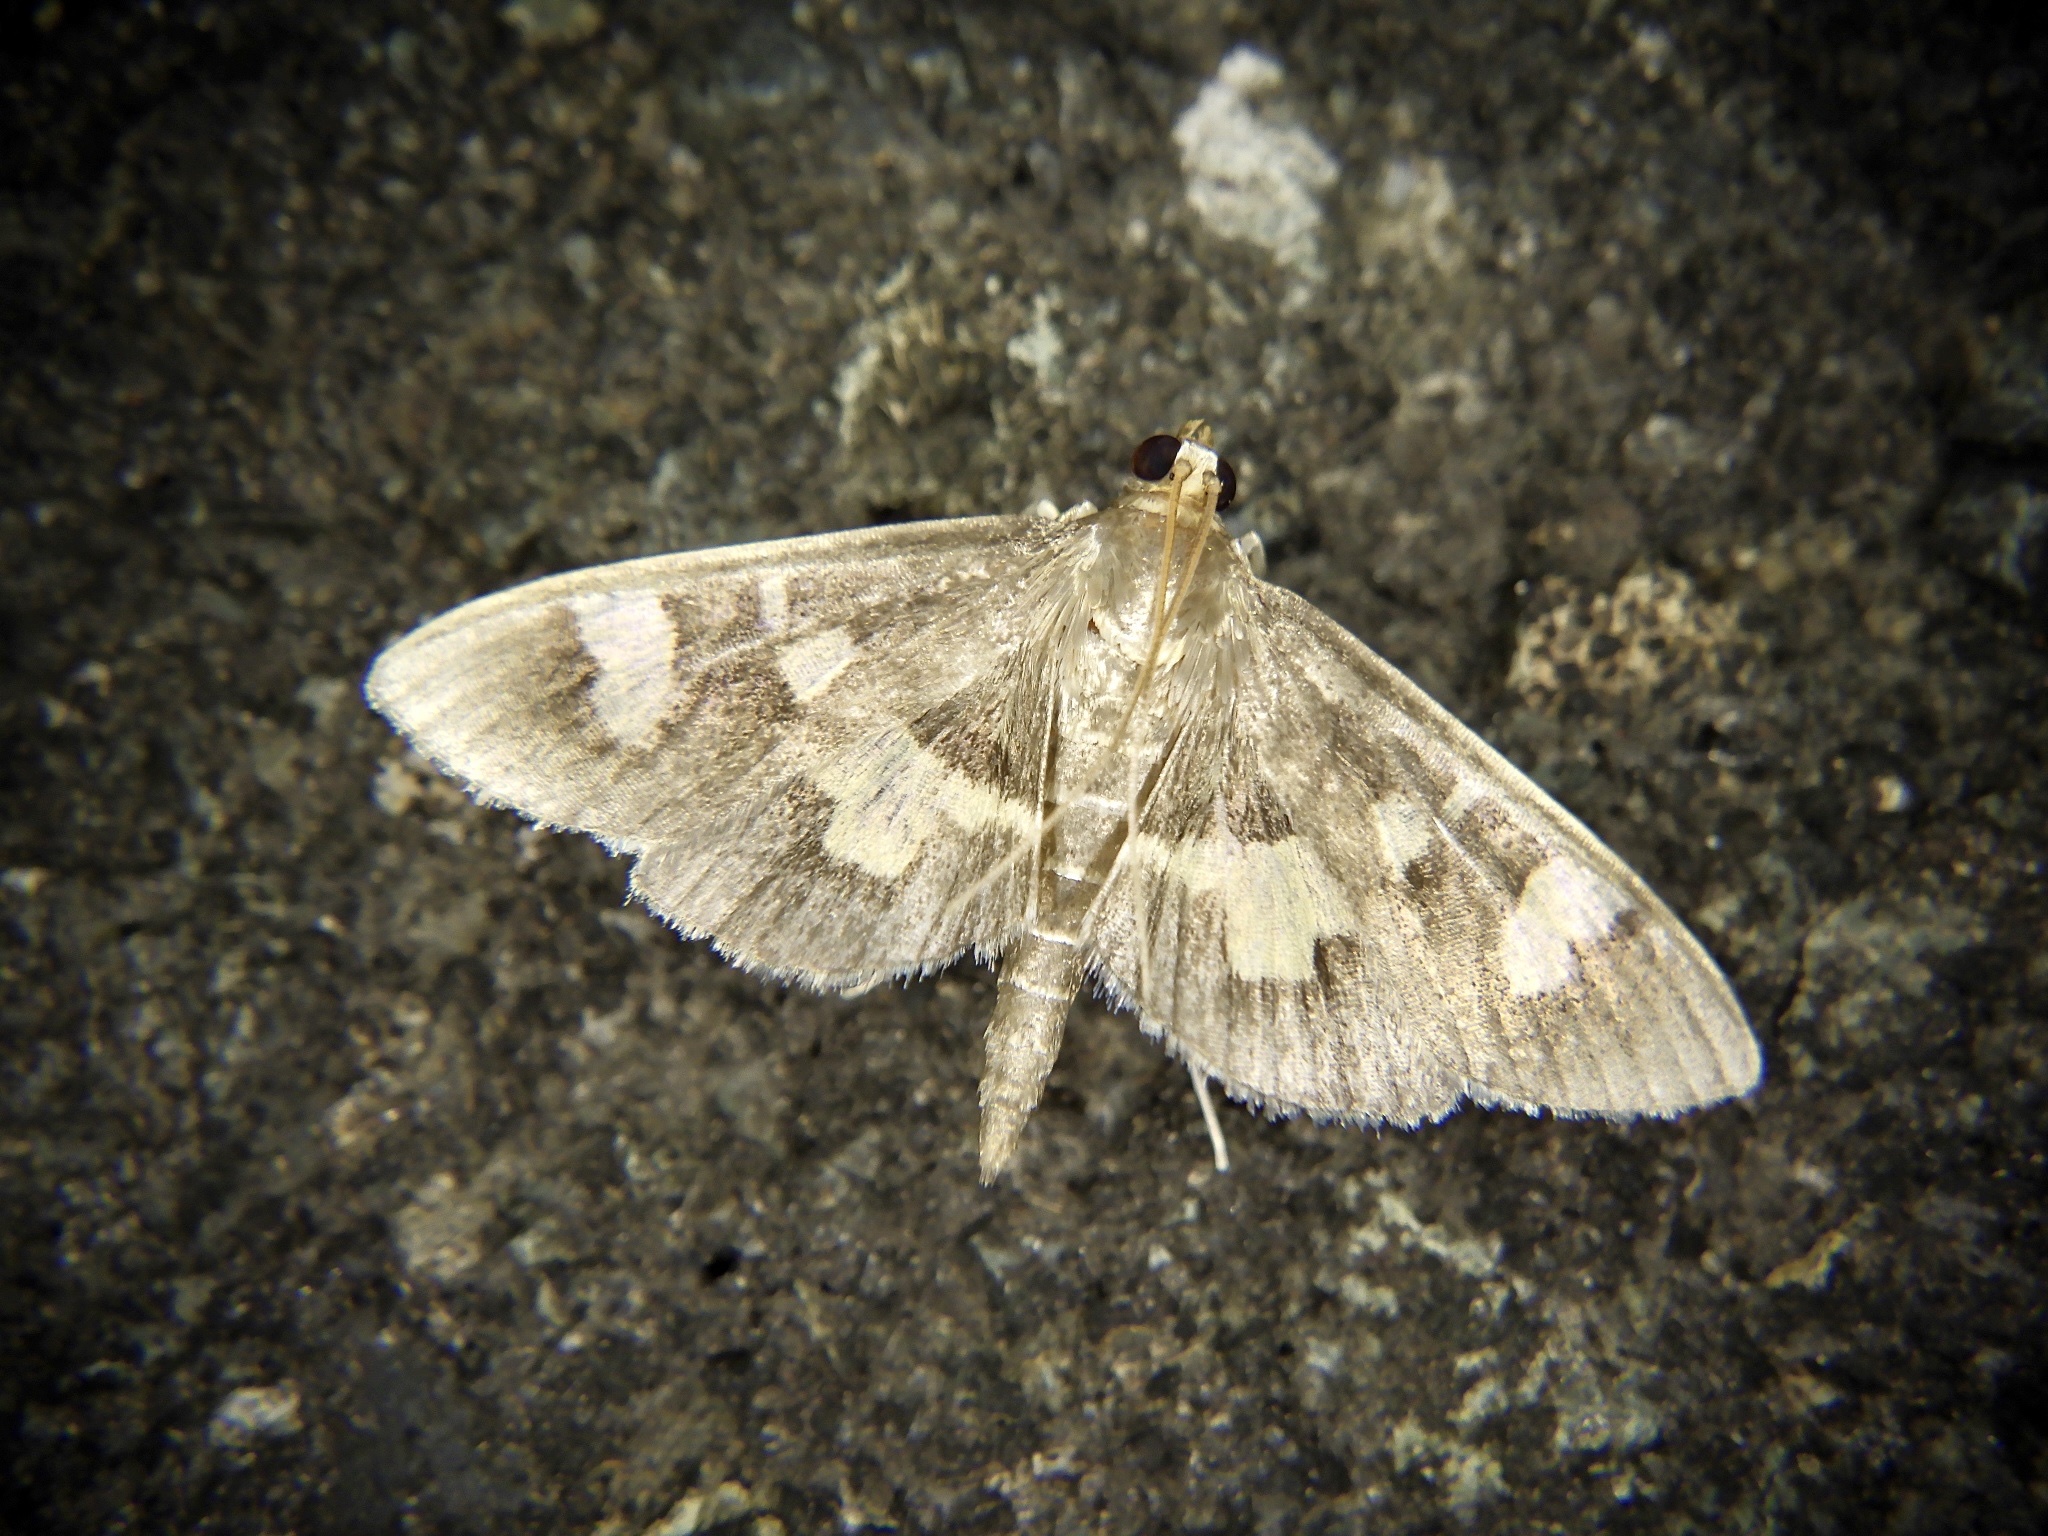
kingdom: Animalia
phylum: Arthropoda
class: Insecta
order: Lepidoptera
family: Crambidae
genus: Uresiphita
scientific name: Uresiphita tricolor
